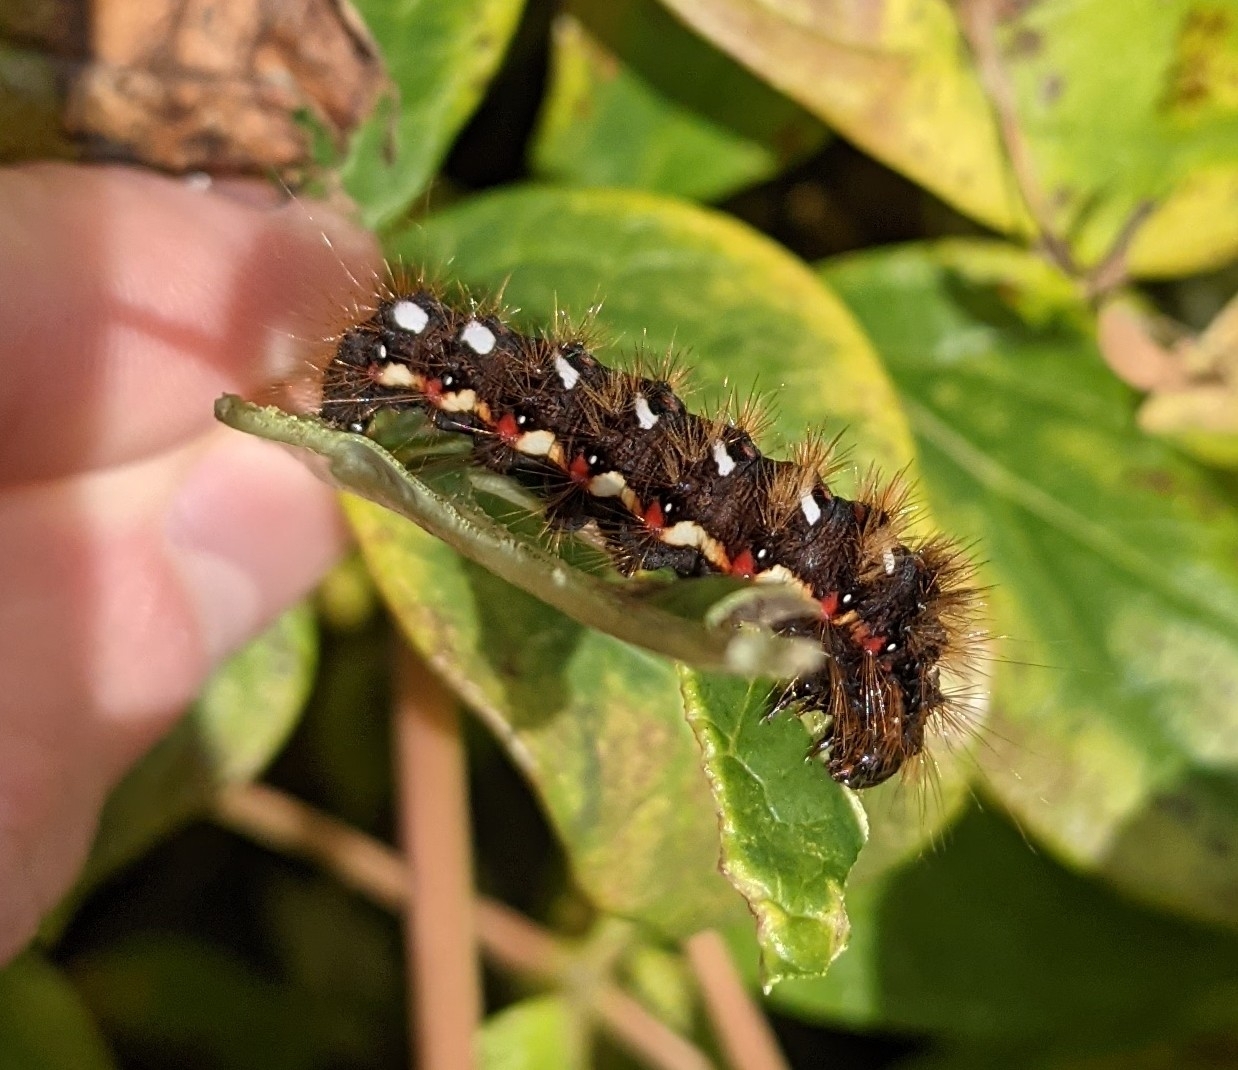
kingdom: Animalia
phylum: Arthropoda
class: Insecta
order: Lepidoptera
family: Noctuidae
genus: Acronicta
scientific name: Acronicta rumicis
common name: Knot grass
